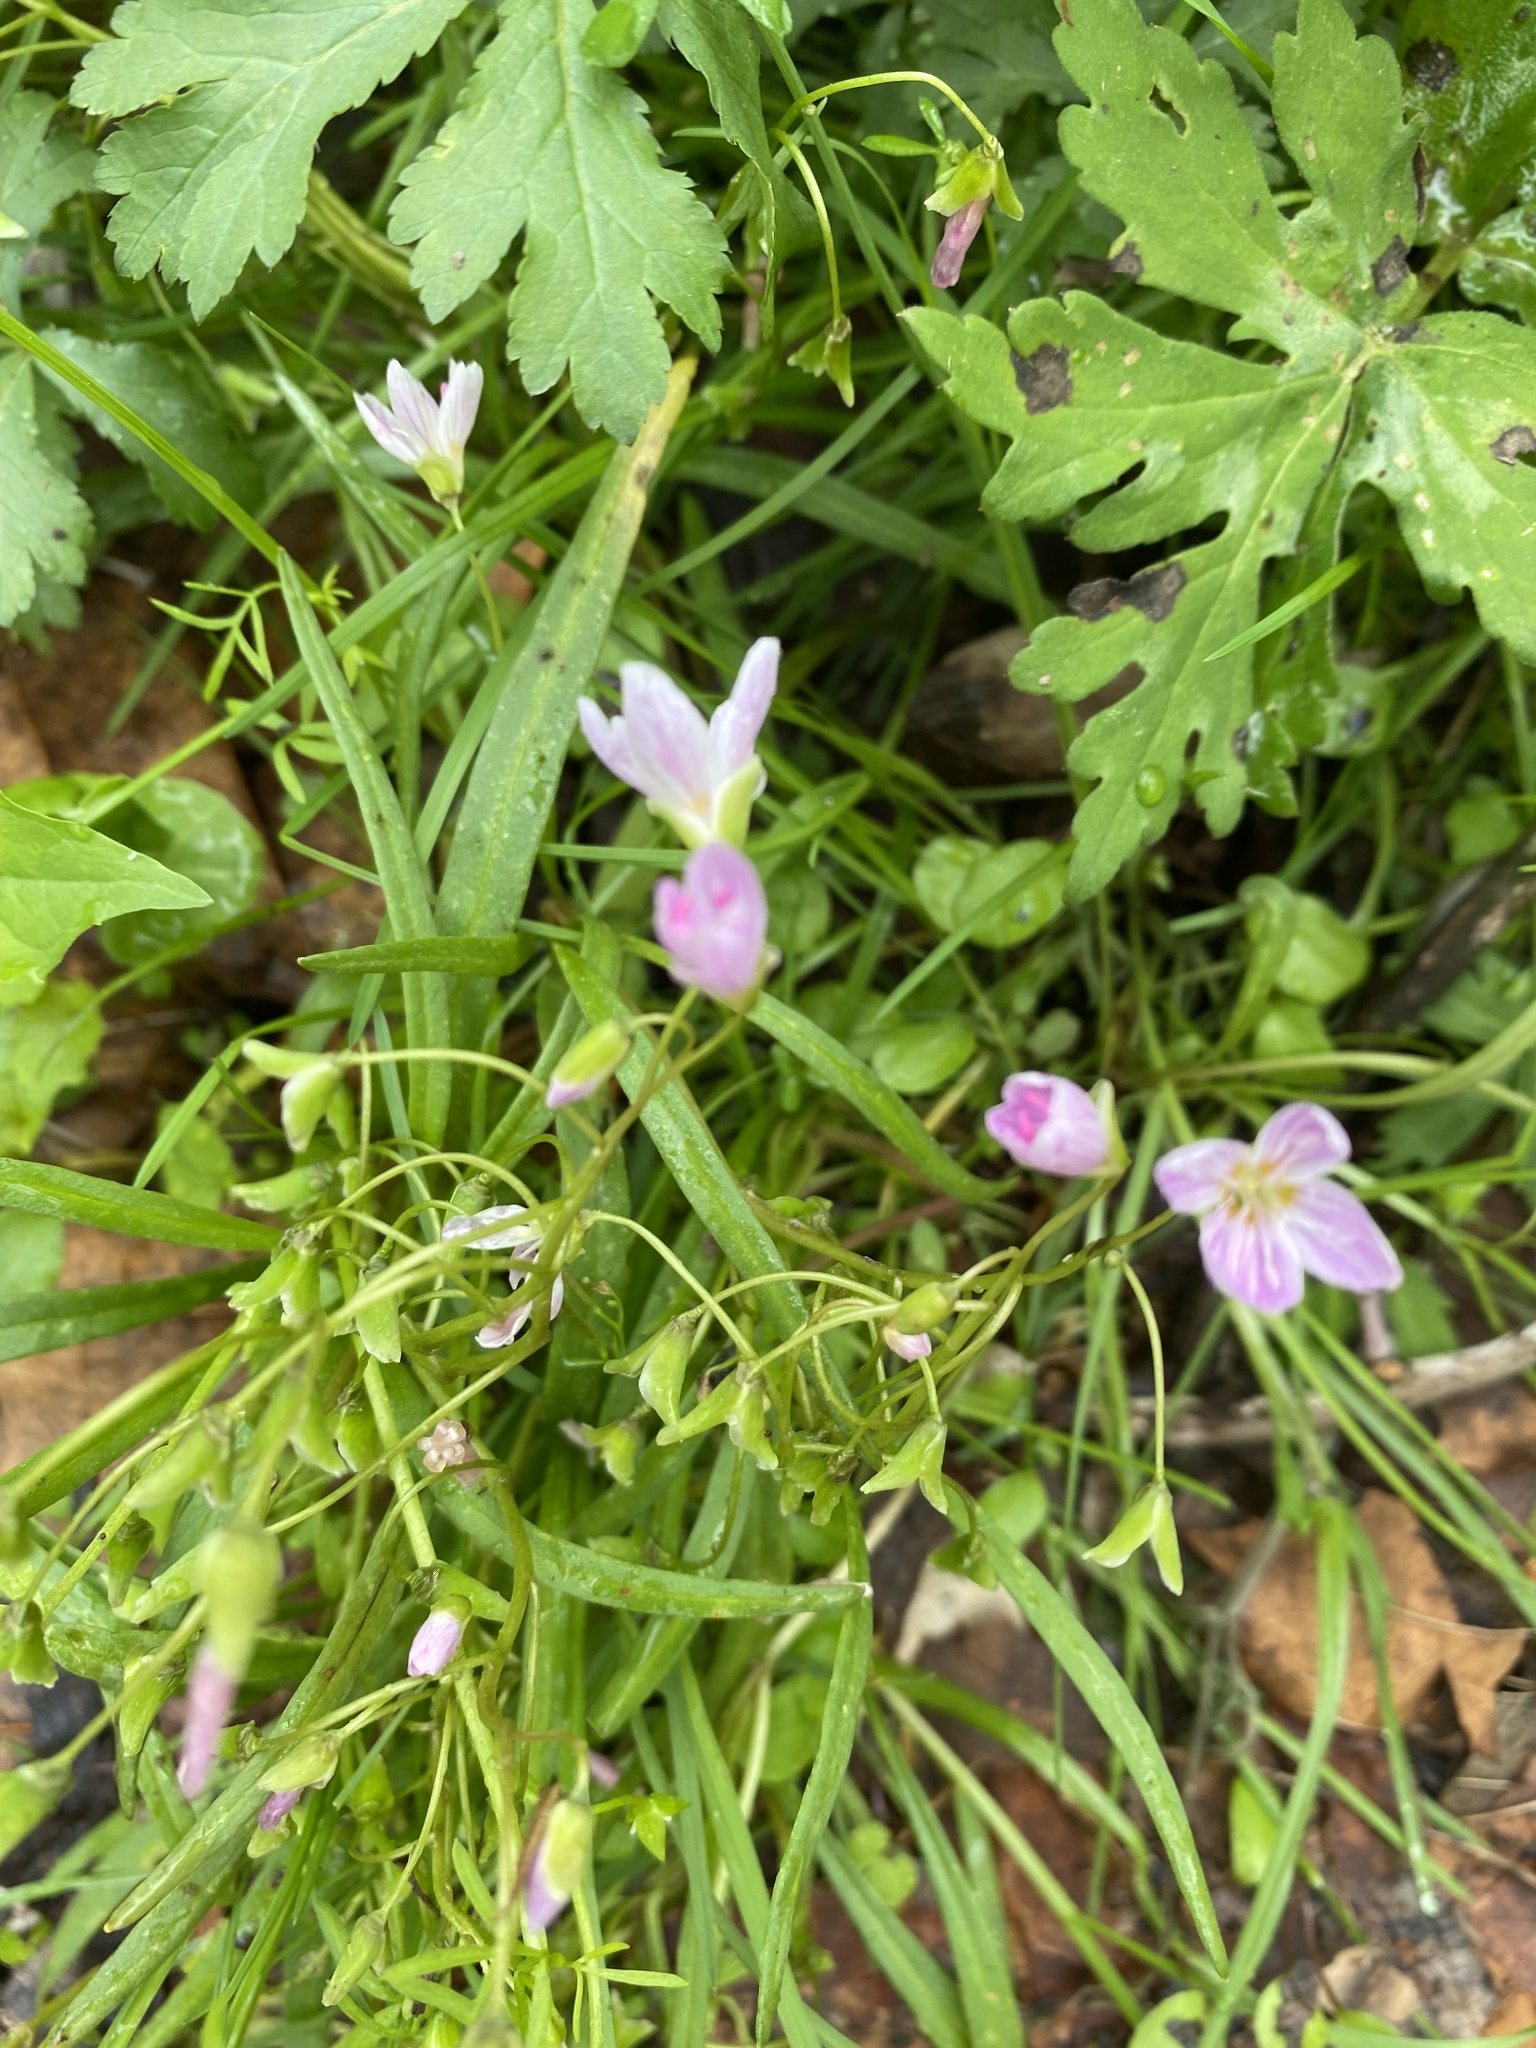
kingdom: Plantae
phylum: Tracheophyta
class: Magnoliopsida
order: Caryophyllales
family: Montiaceae
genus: Claytonia
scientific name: Claytonia virginica
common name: Virginia springbeauty
